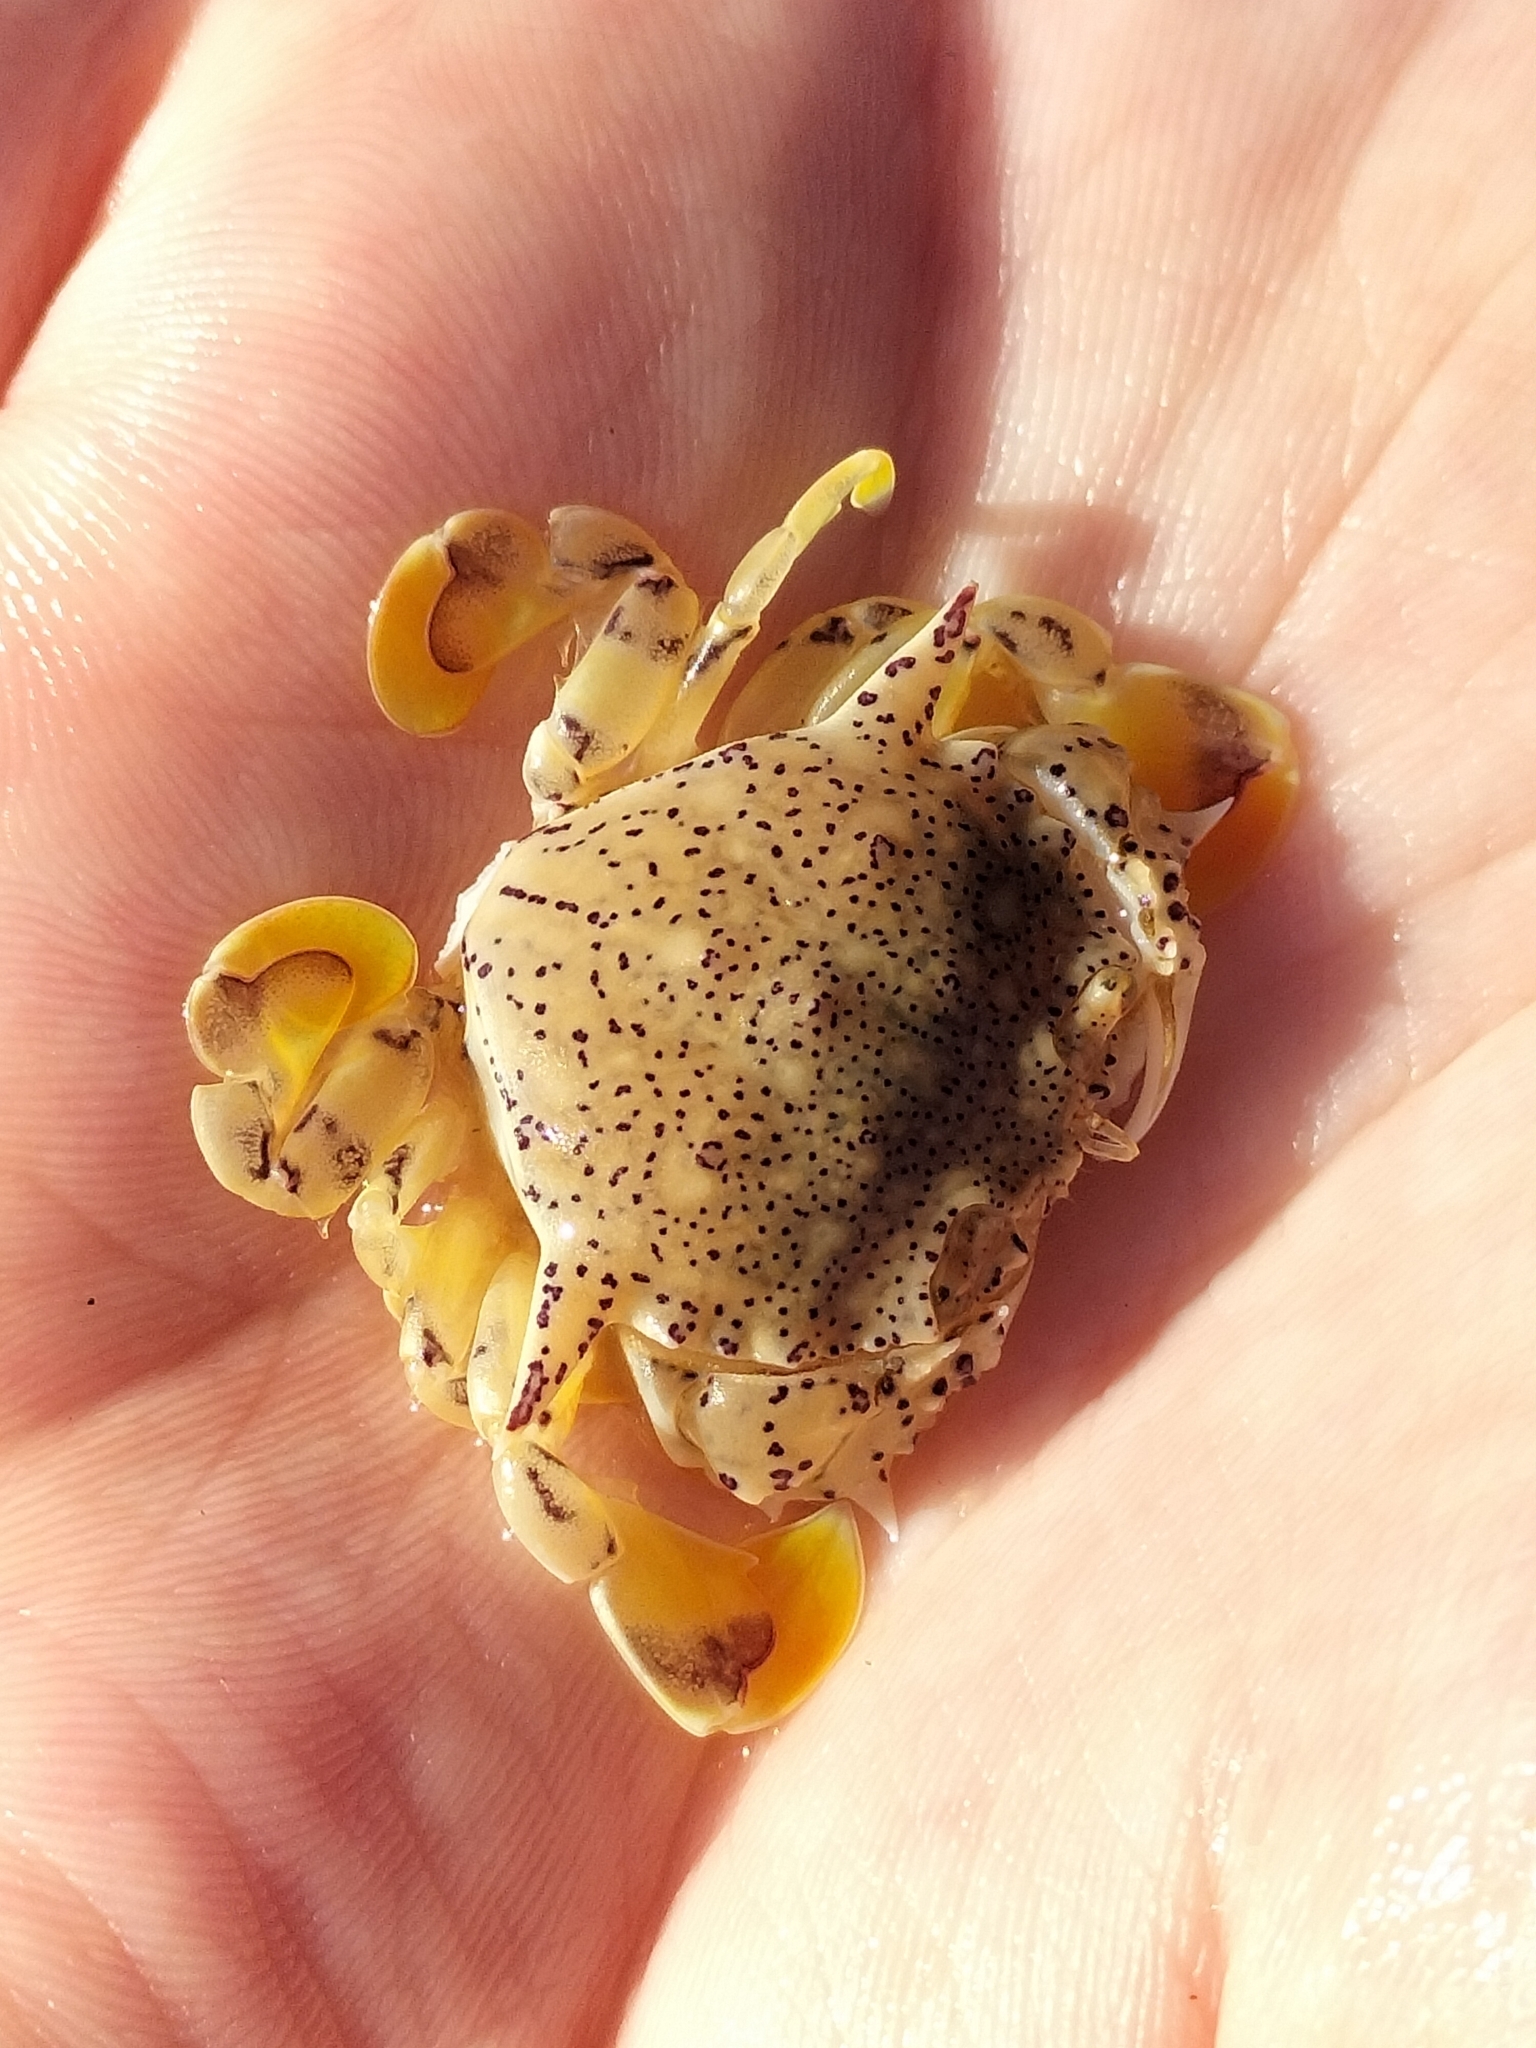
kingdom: Animalia
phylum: Arthropoda
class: Malacostraca
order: Decapoda
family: Matutidae
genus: Matuta
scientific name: Matuta victor
